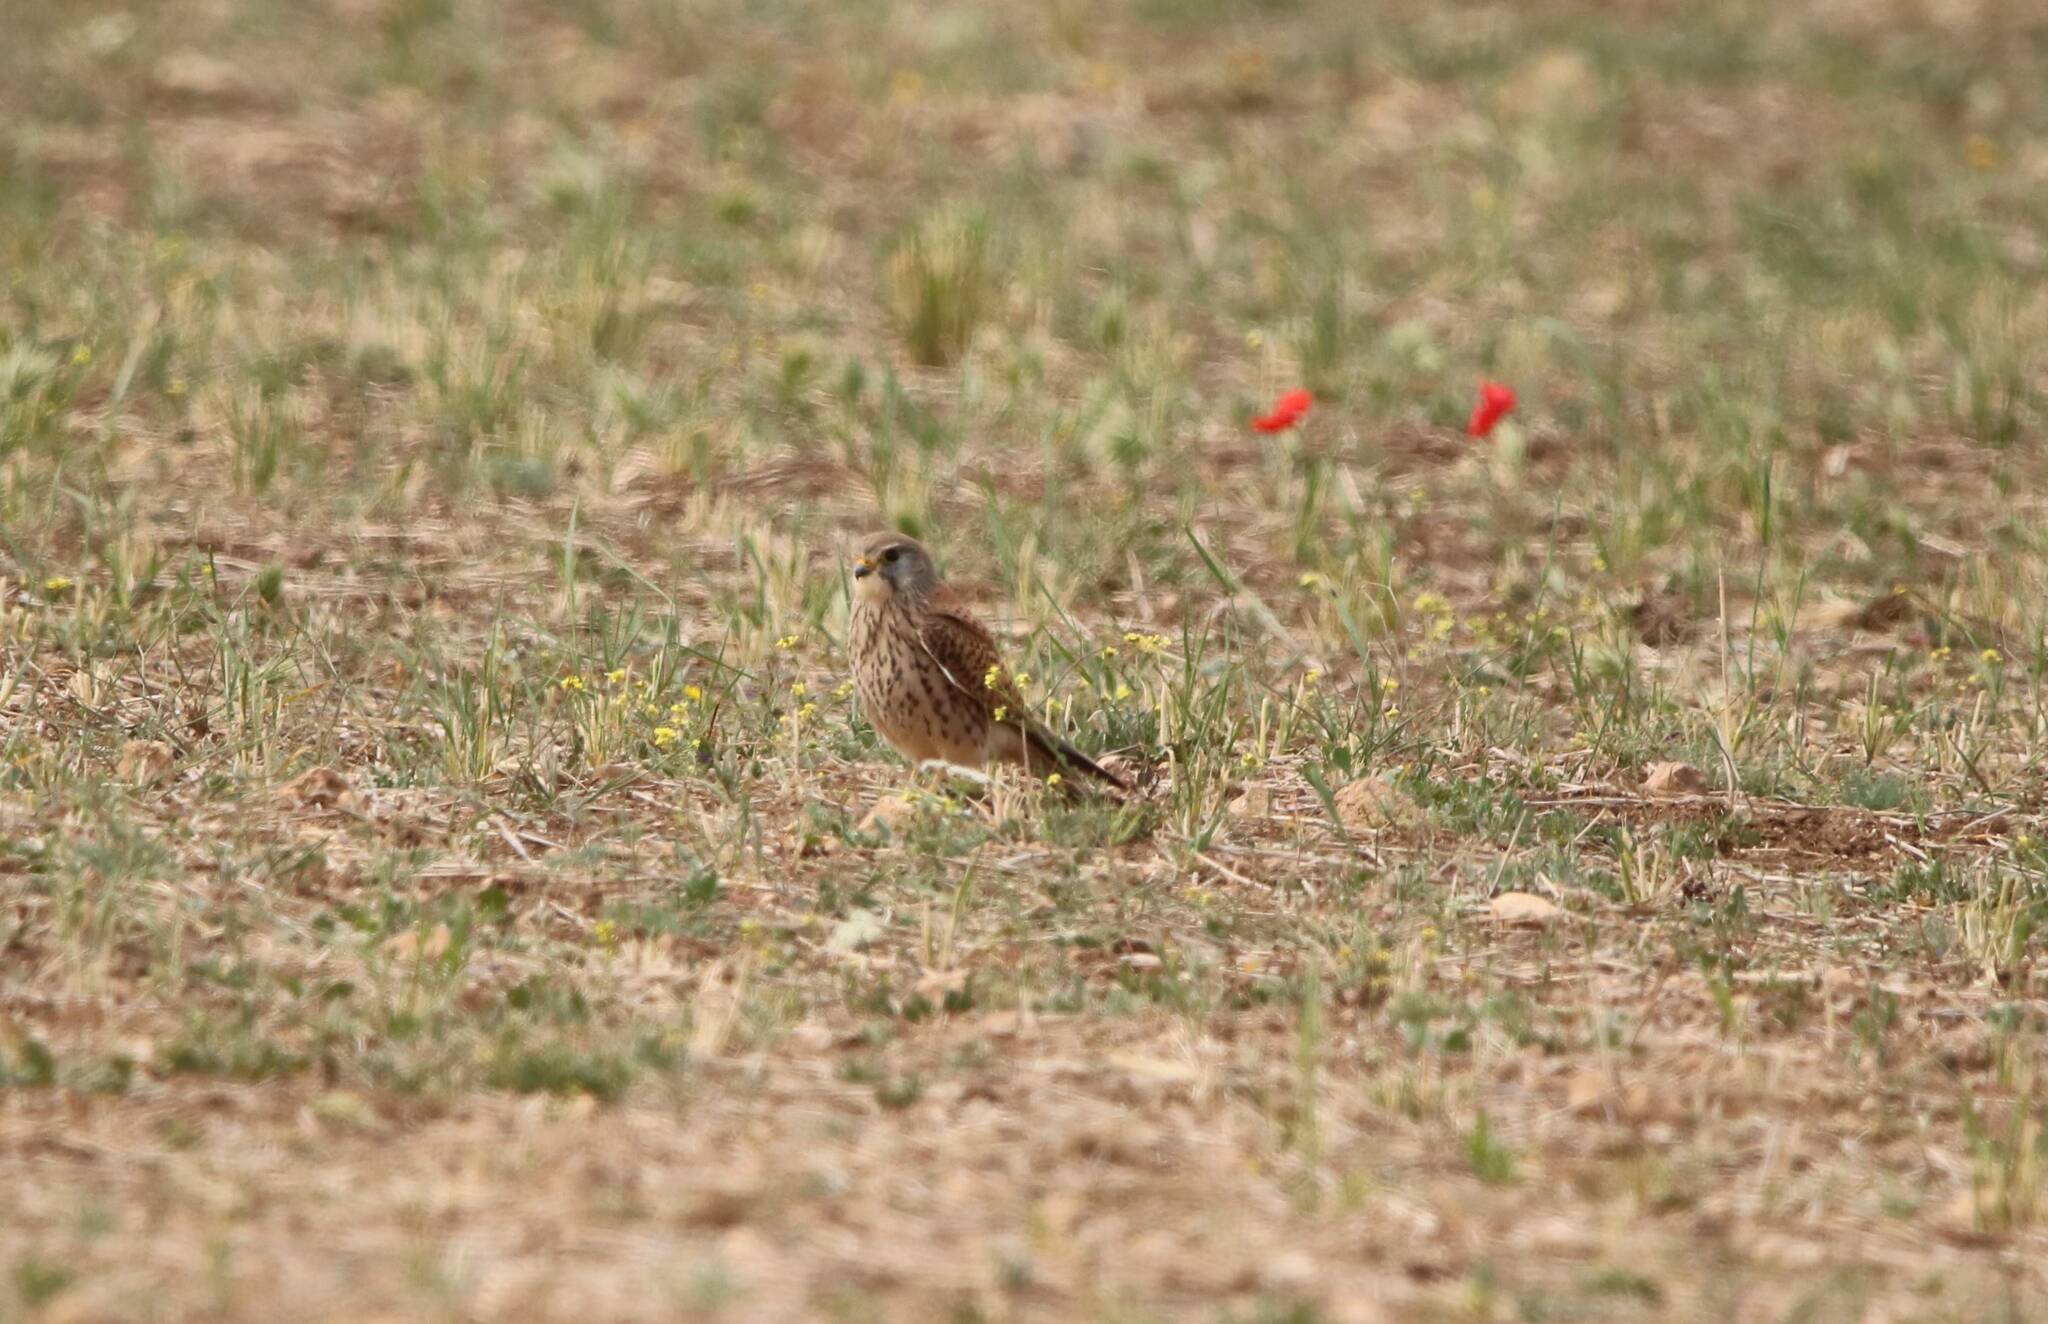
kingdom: Animalia
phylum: Chordata
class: Aves
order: Falconiformes
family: Falconidae
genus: Falco
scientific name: Falco tinnunculus
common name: Common kestrel
